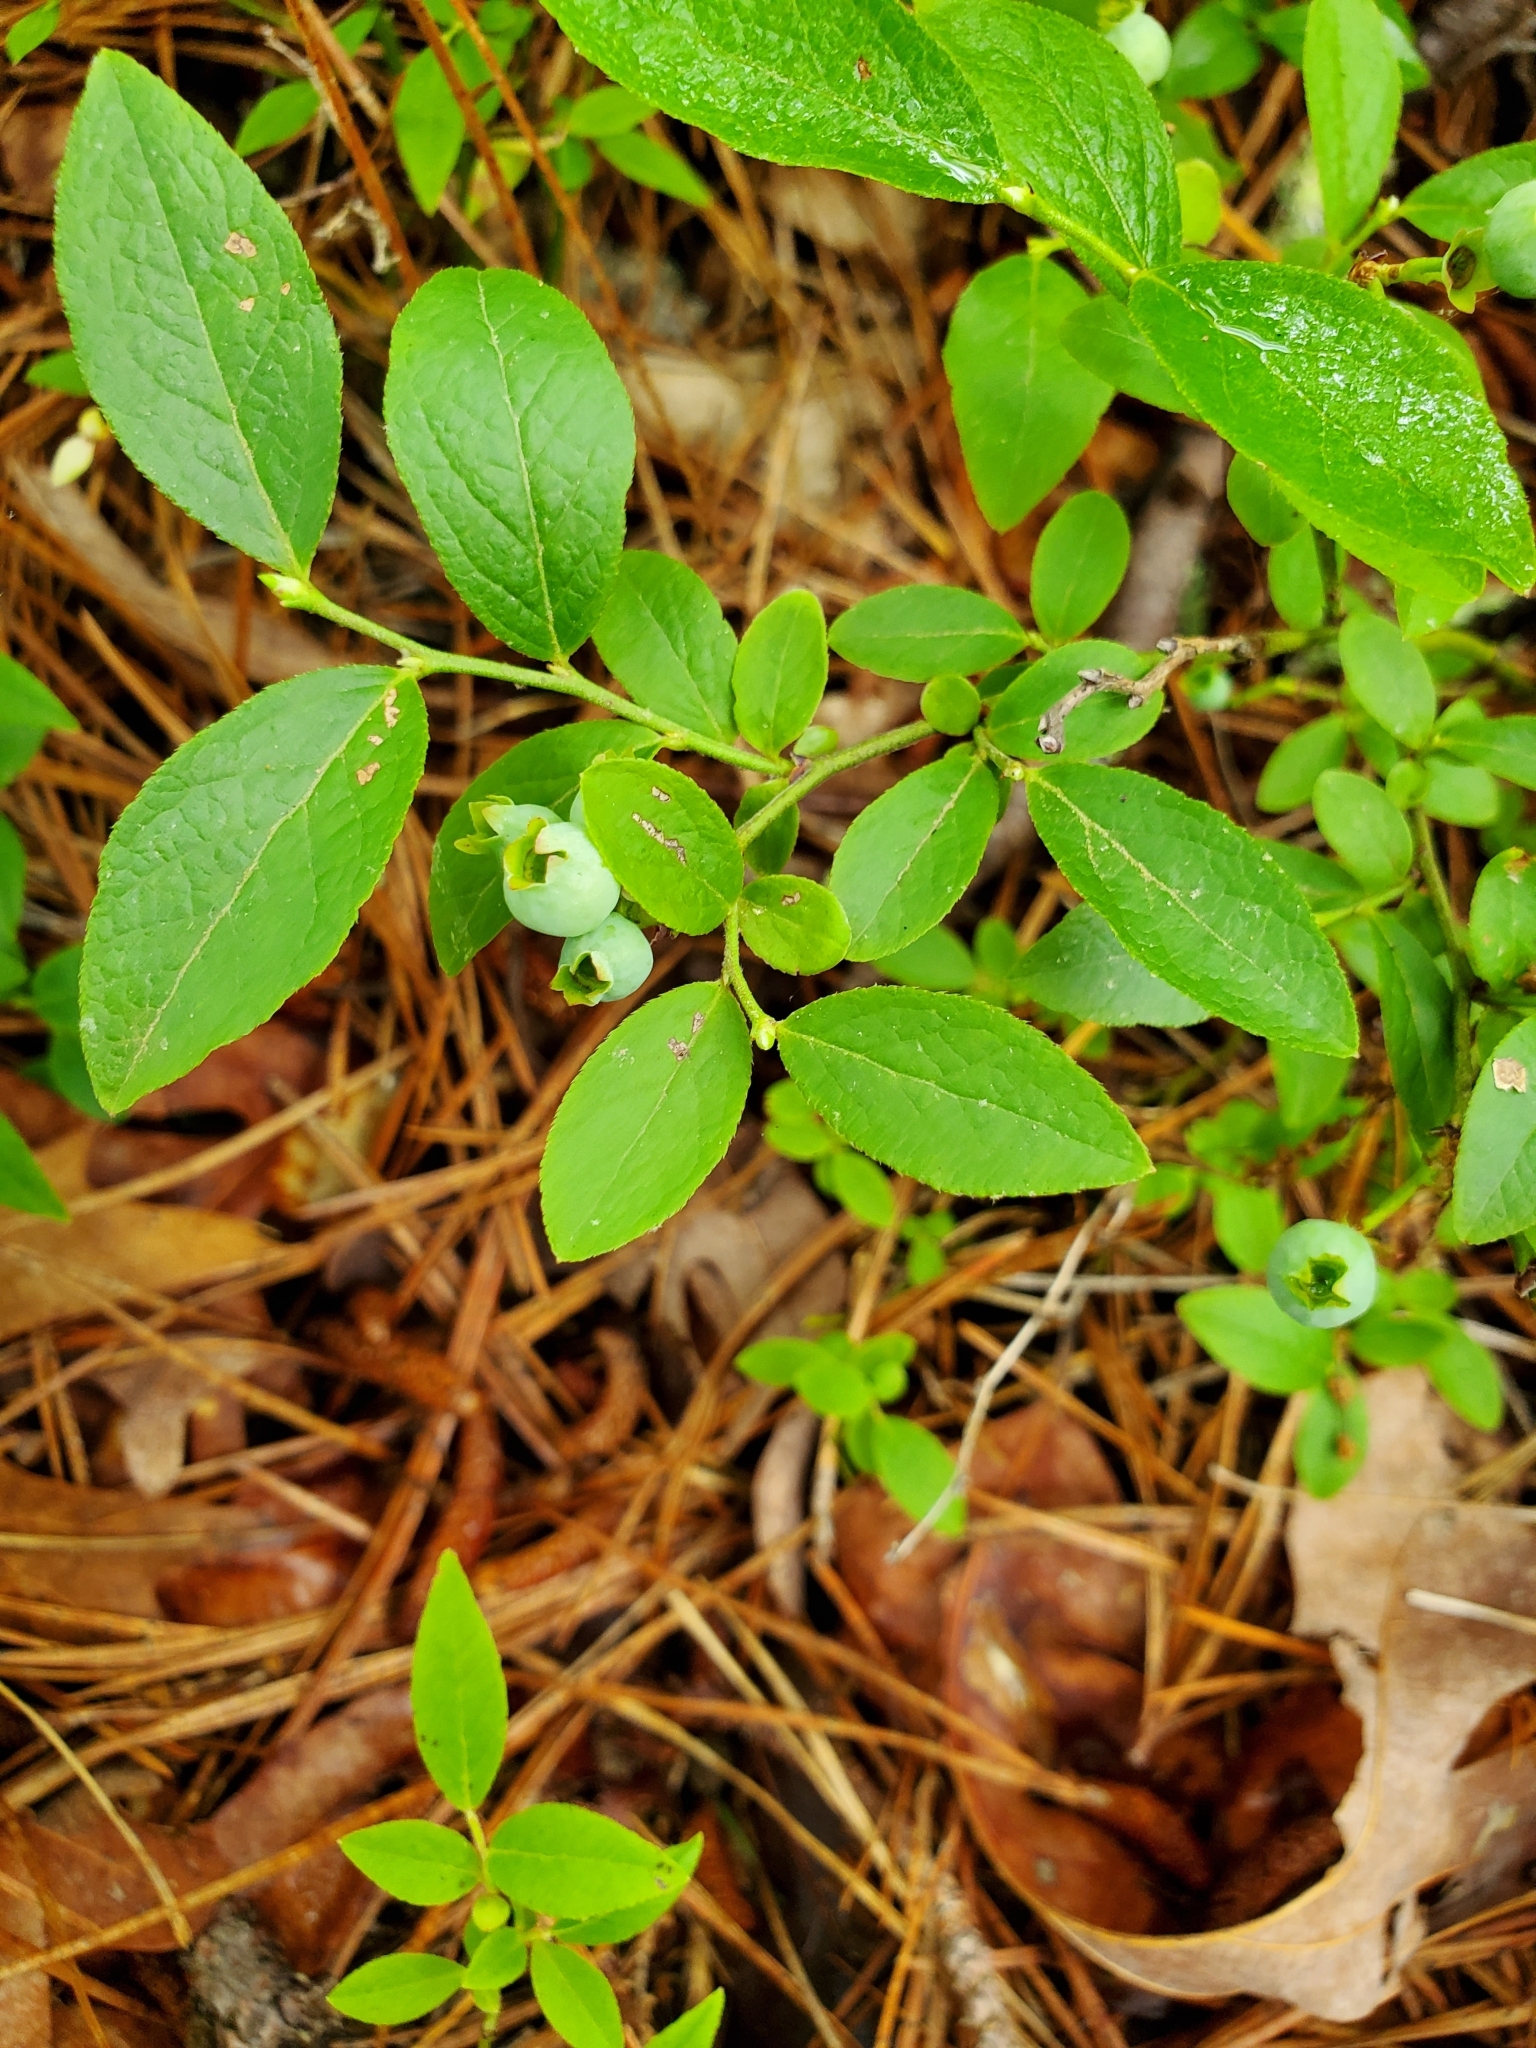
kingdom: Plantae
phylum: Tracheophyta
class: Magnoliopsida
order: Ericales
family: Ericaceae
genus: Vaccinium
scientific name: Vaccinium angustifolium
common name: Early lowbush blueberry
